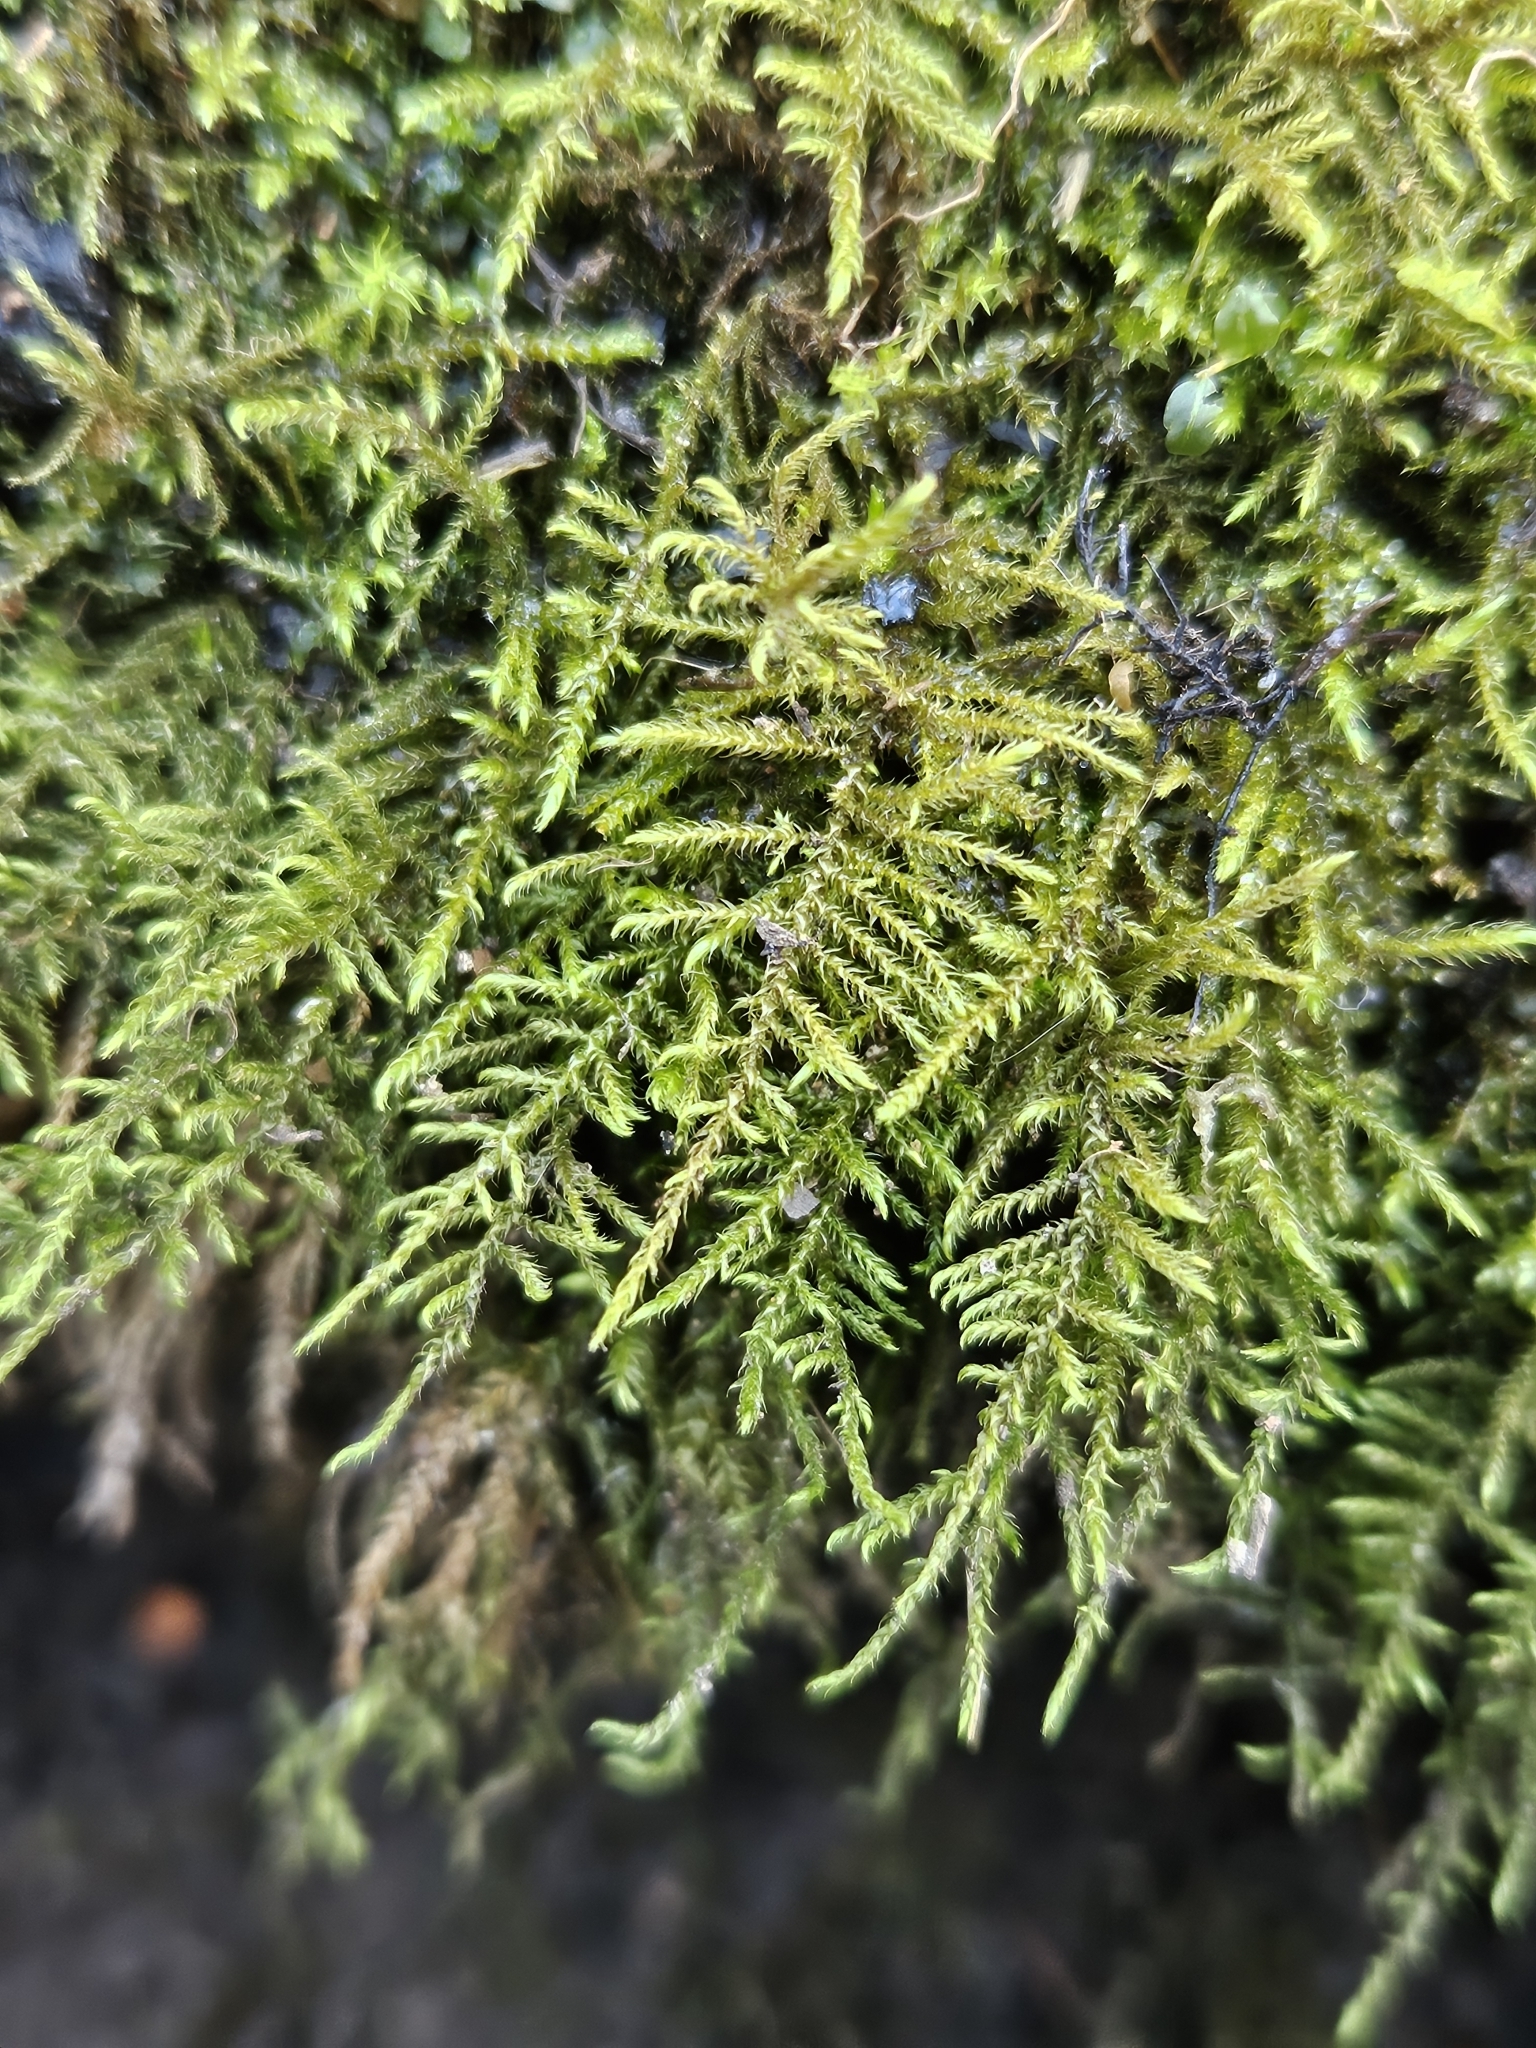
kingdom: Plantae
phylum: Bryophyta
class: Bryopsida
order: Hypnales
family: Amblystegiaceae
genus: Cratoneuron
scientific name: Cratoneuron filicinum
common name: Fern-leaved hook moss
